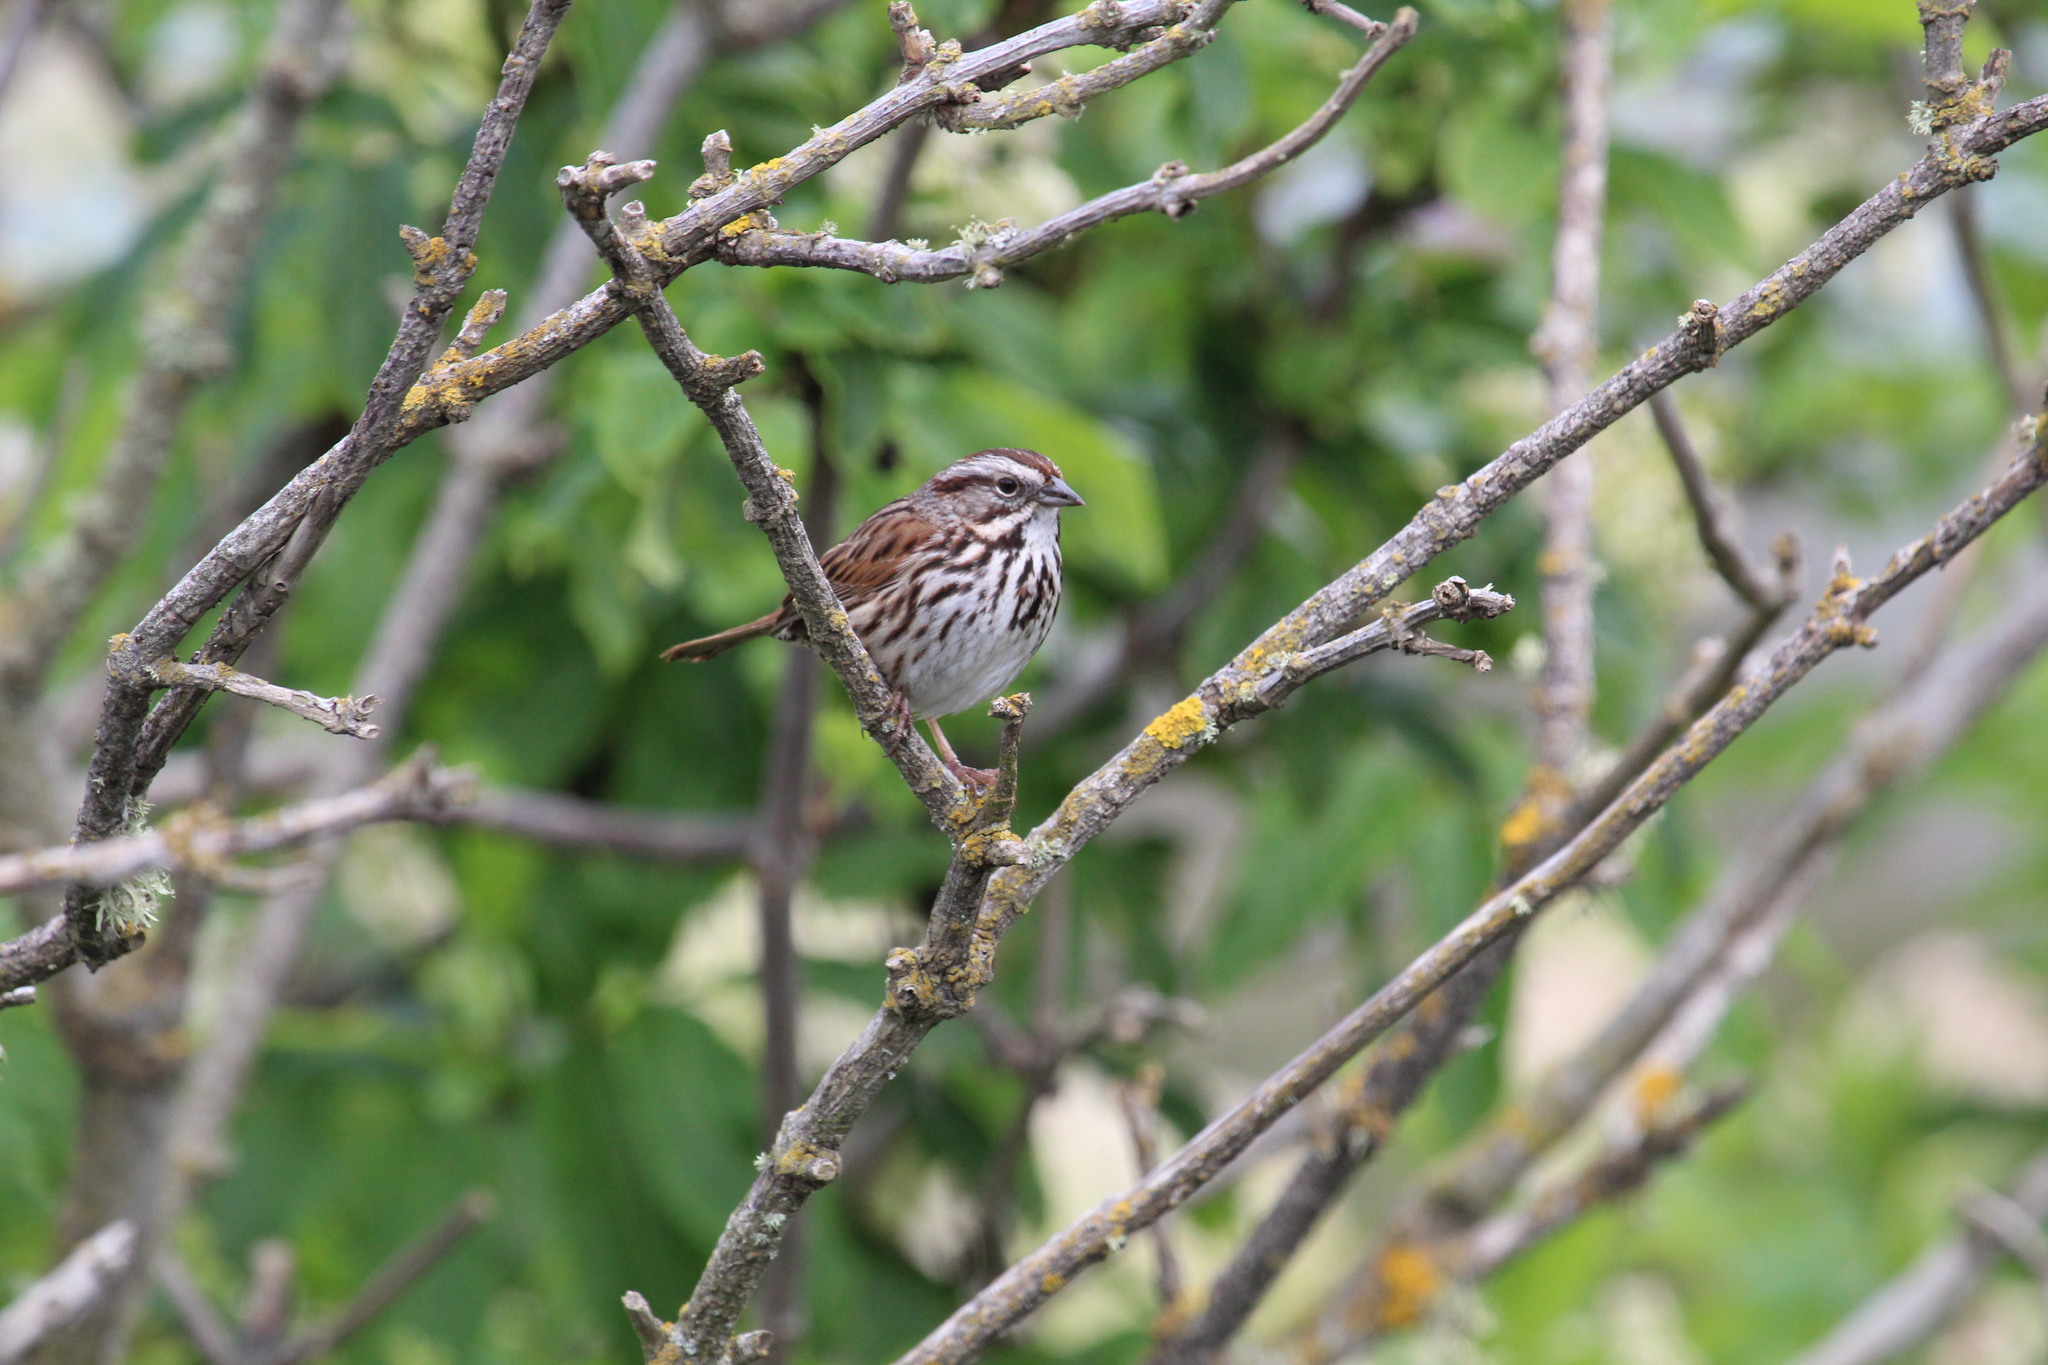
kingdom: Animalia
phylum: Chordata
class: Aves
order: Passeriformes
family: Passerellidae
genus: Melospiza
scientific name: Melospiza melodia
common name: Song sparrow
